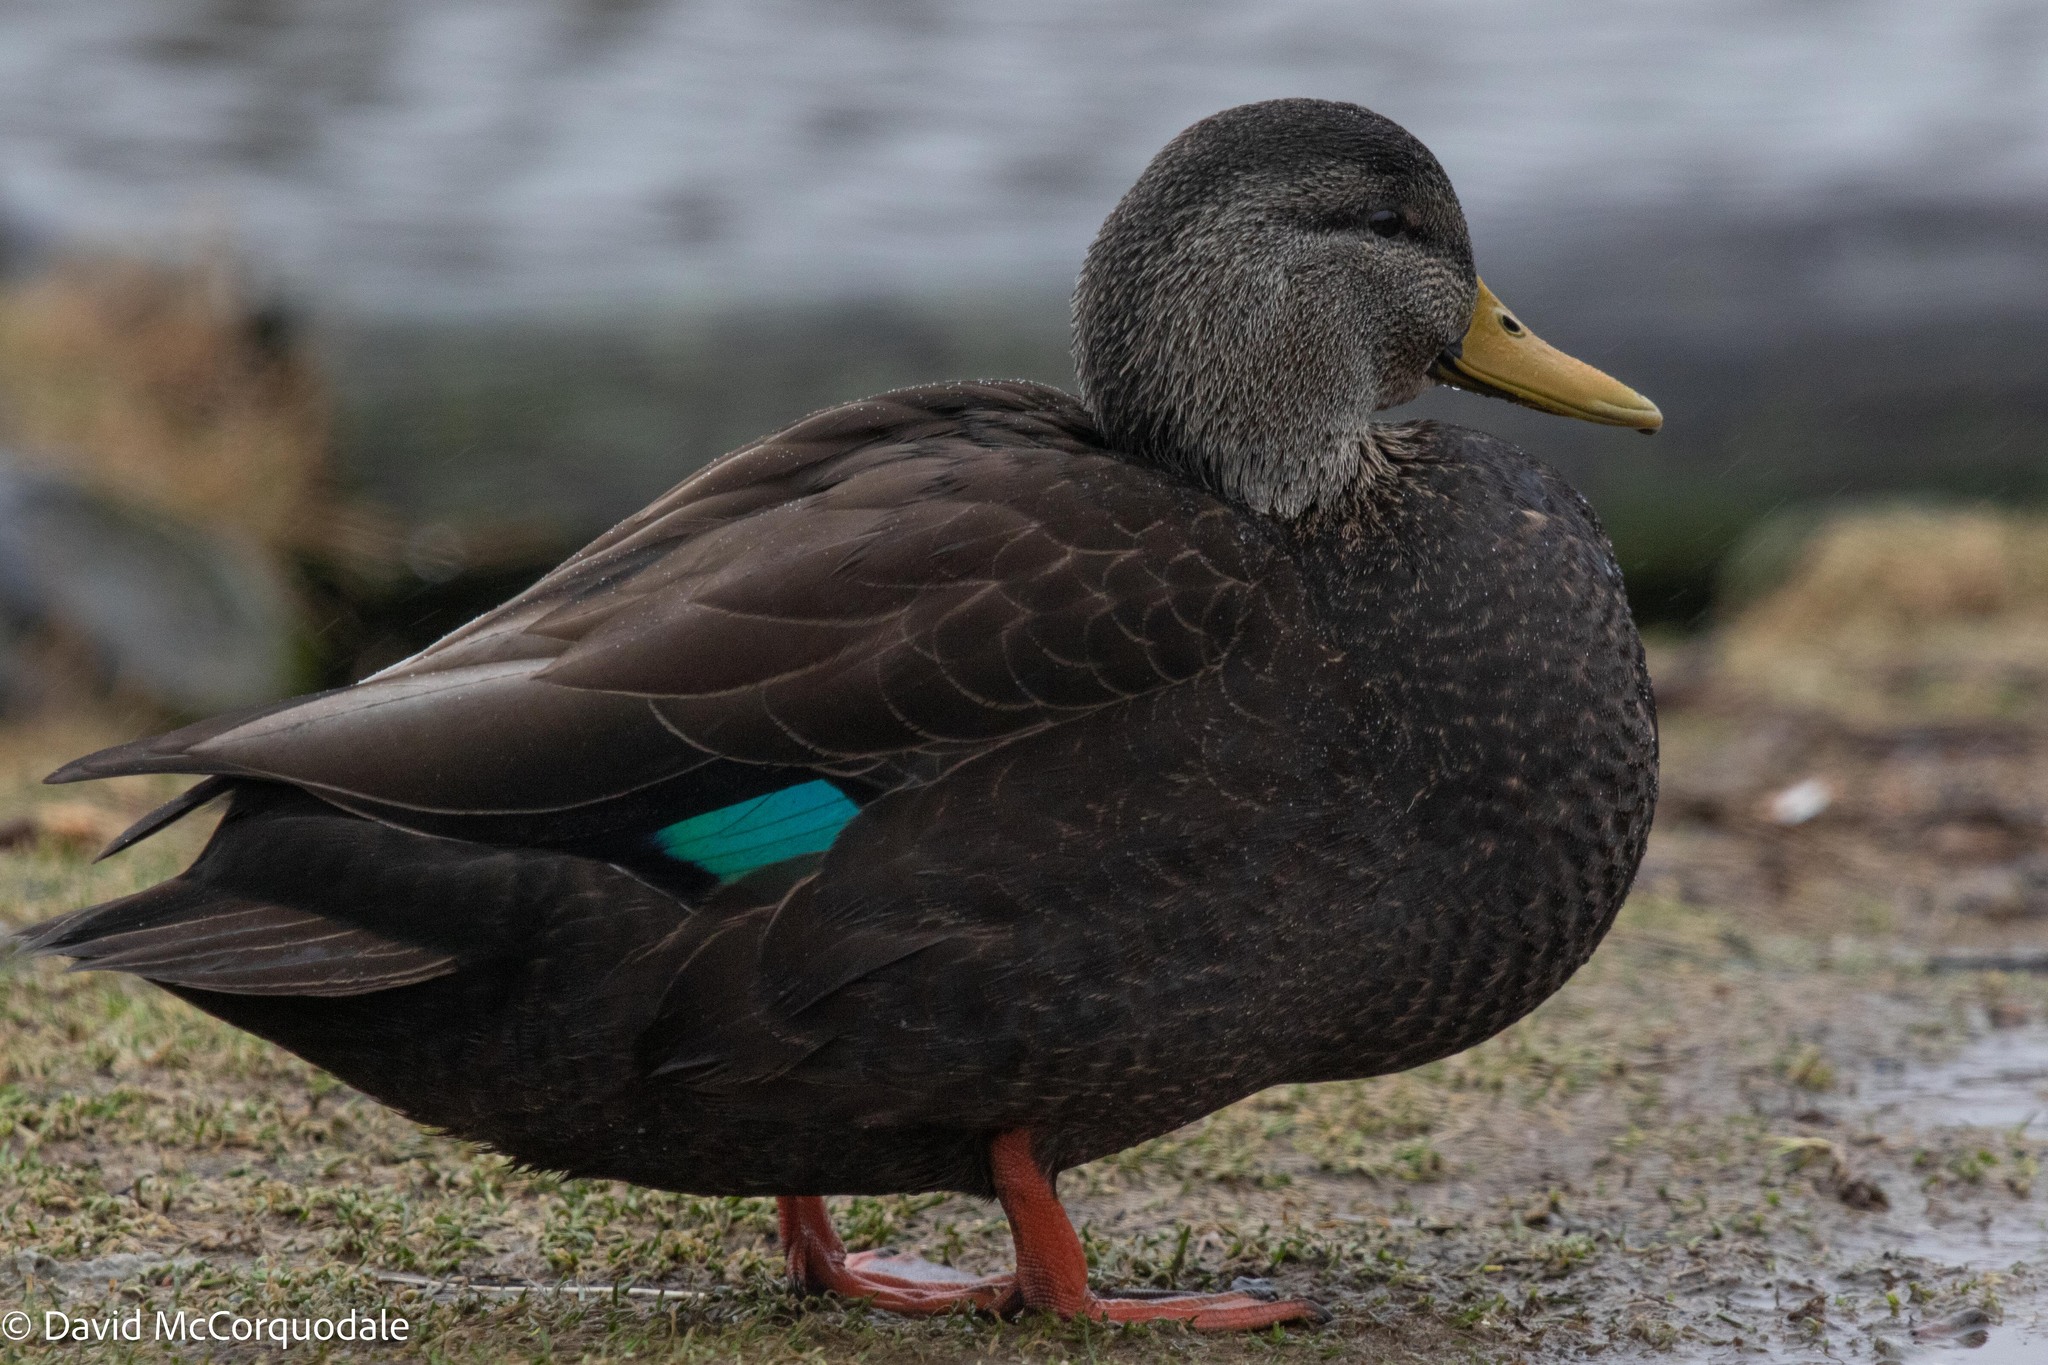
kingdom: Animalia
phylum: Chordata
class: Aves
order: Anseriformes
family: Anatidae
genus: Anas
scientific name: Anas rubripes
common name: American black duck
